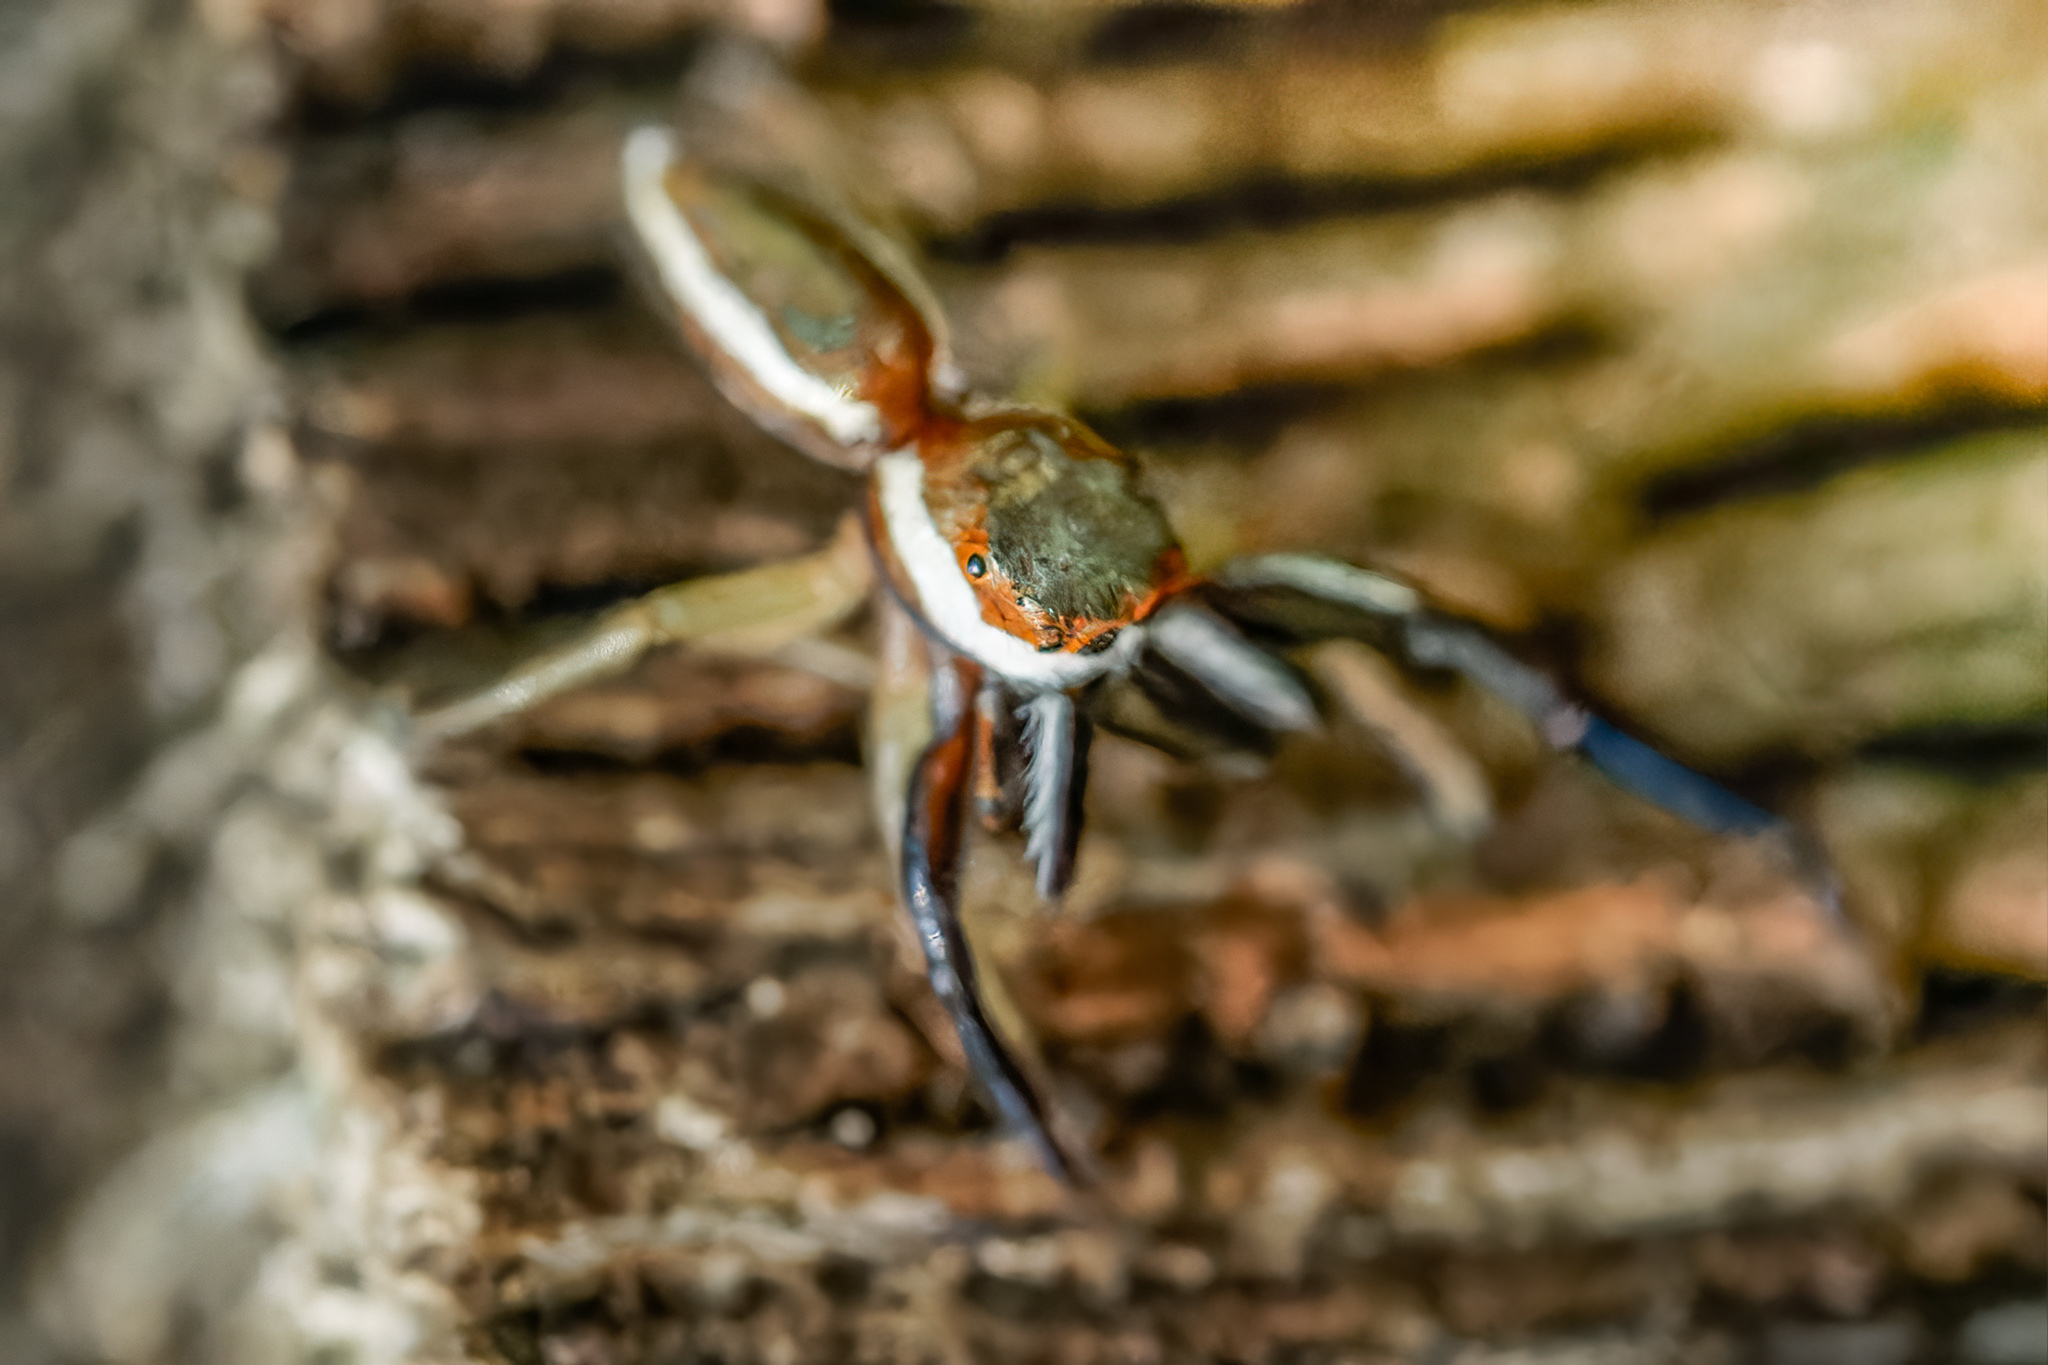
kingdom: Animalia
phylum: Arthropoda
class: Arachnida
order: Araneae
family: Salticidae
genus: Hentzia
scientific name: Hentzia palmarum
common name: Common hentz jumping spider
